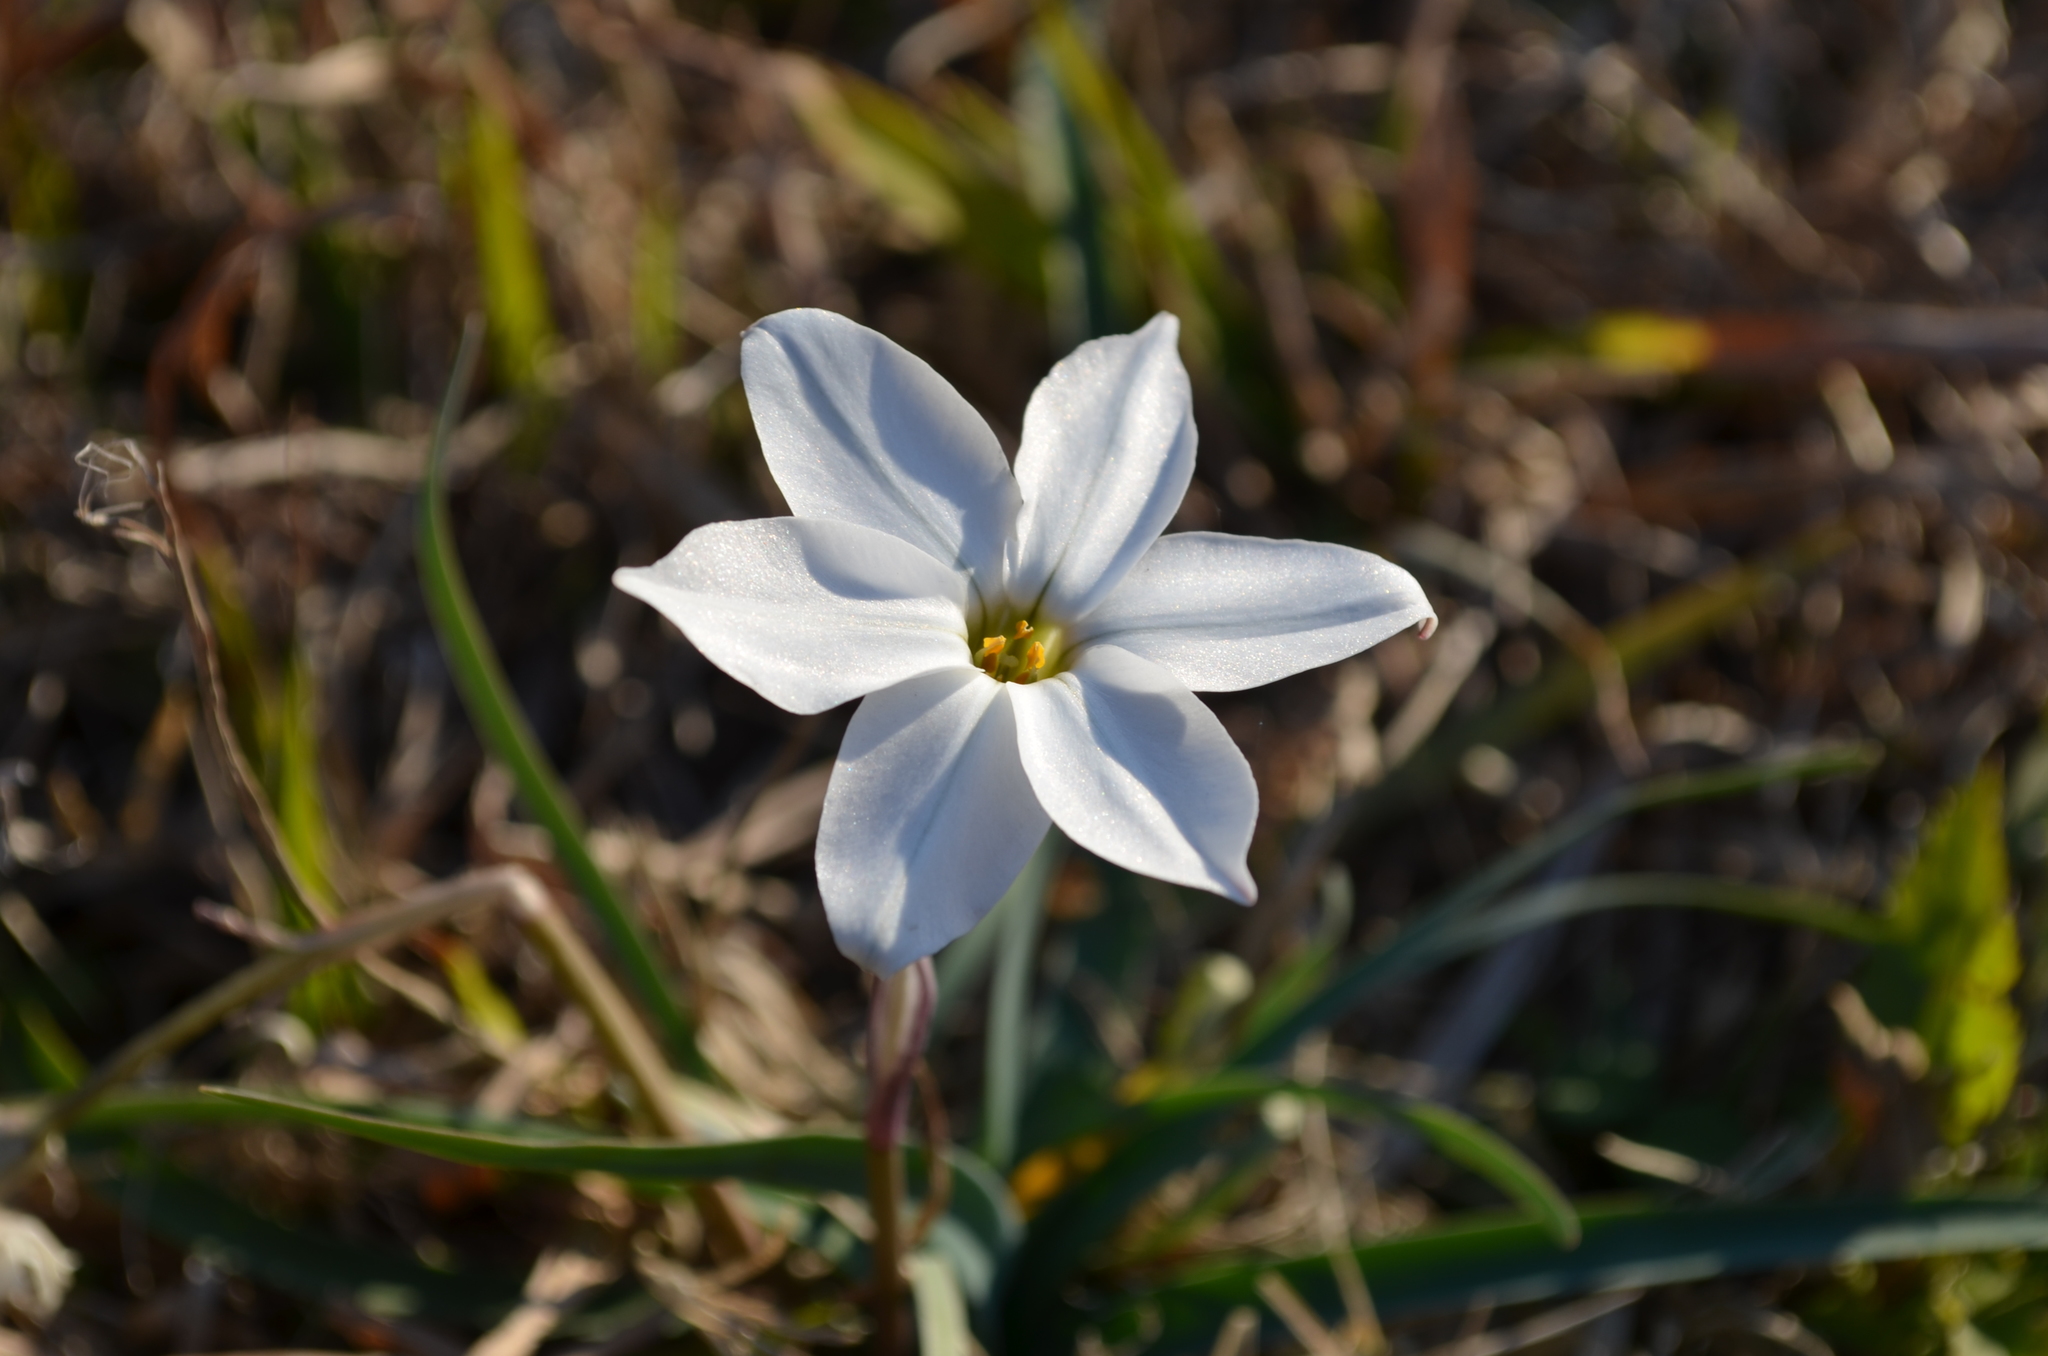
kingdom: Plantae
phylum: Tracheophyta
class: Liliopsida
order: Asparagales
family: Amaryllidaceae
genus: Ipheion
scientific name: Ipheion uniflorum
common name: Spring starflower
